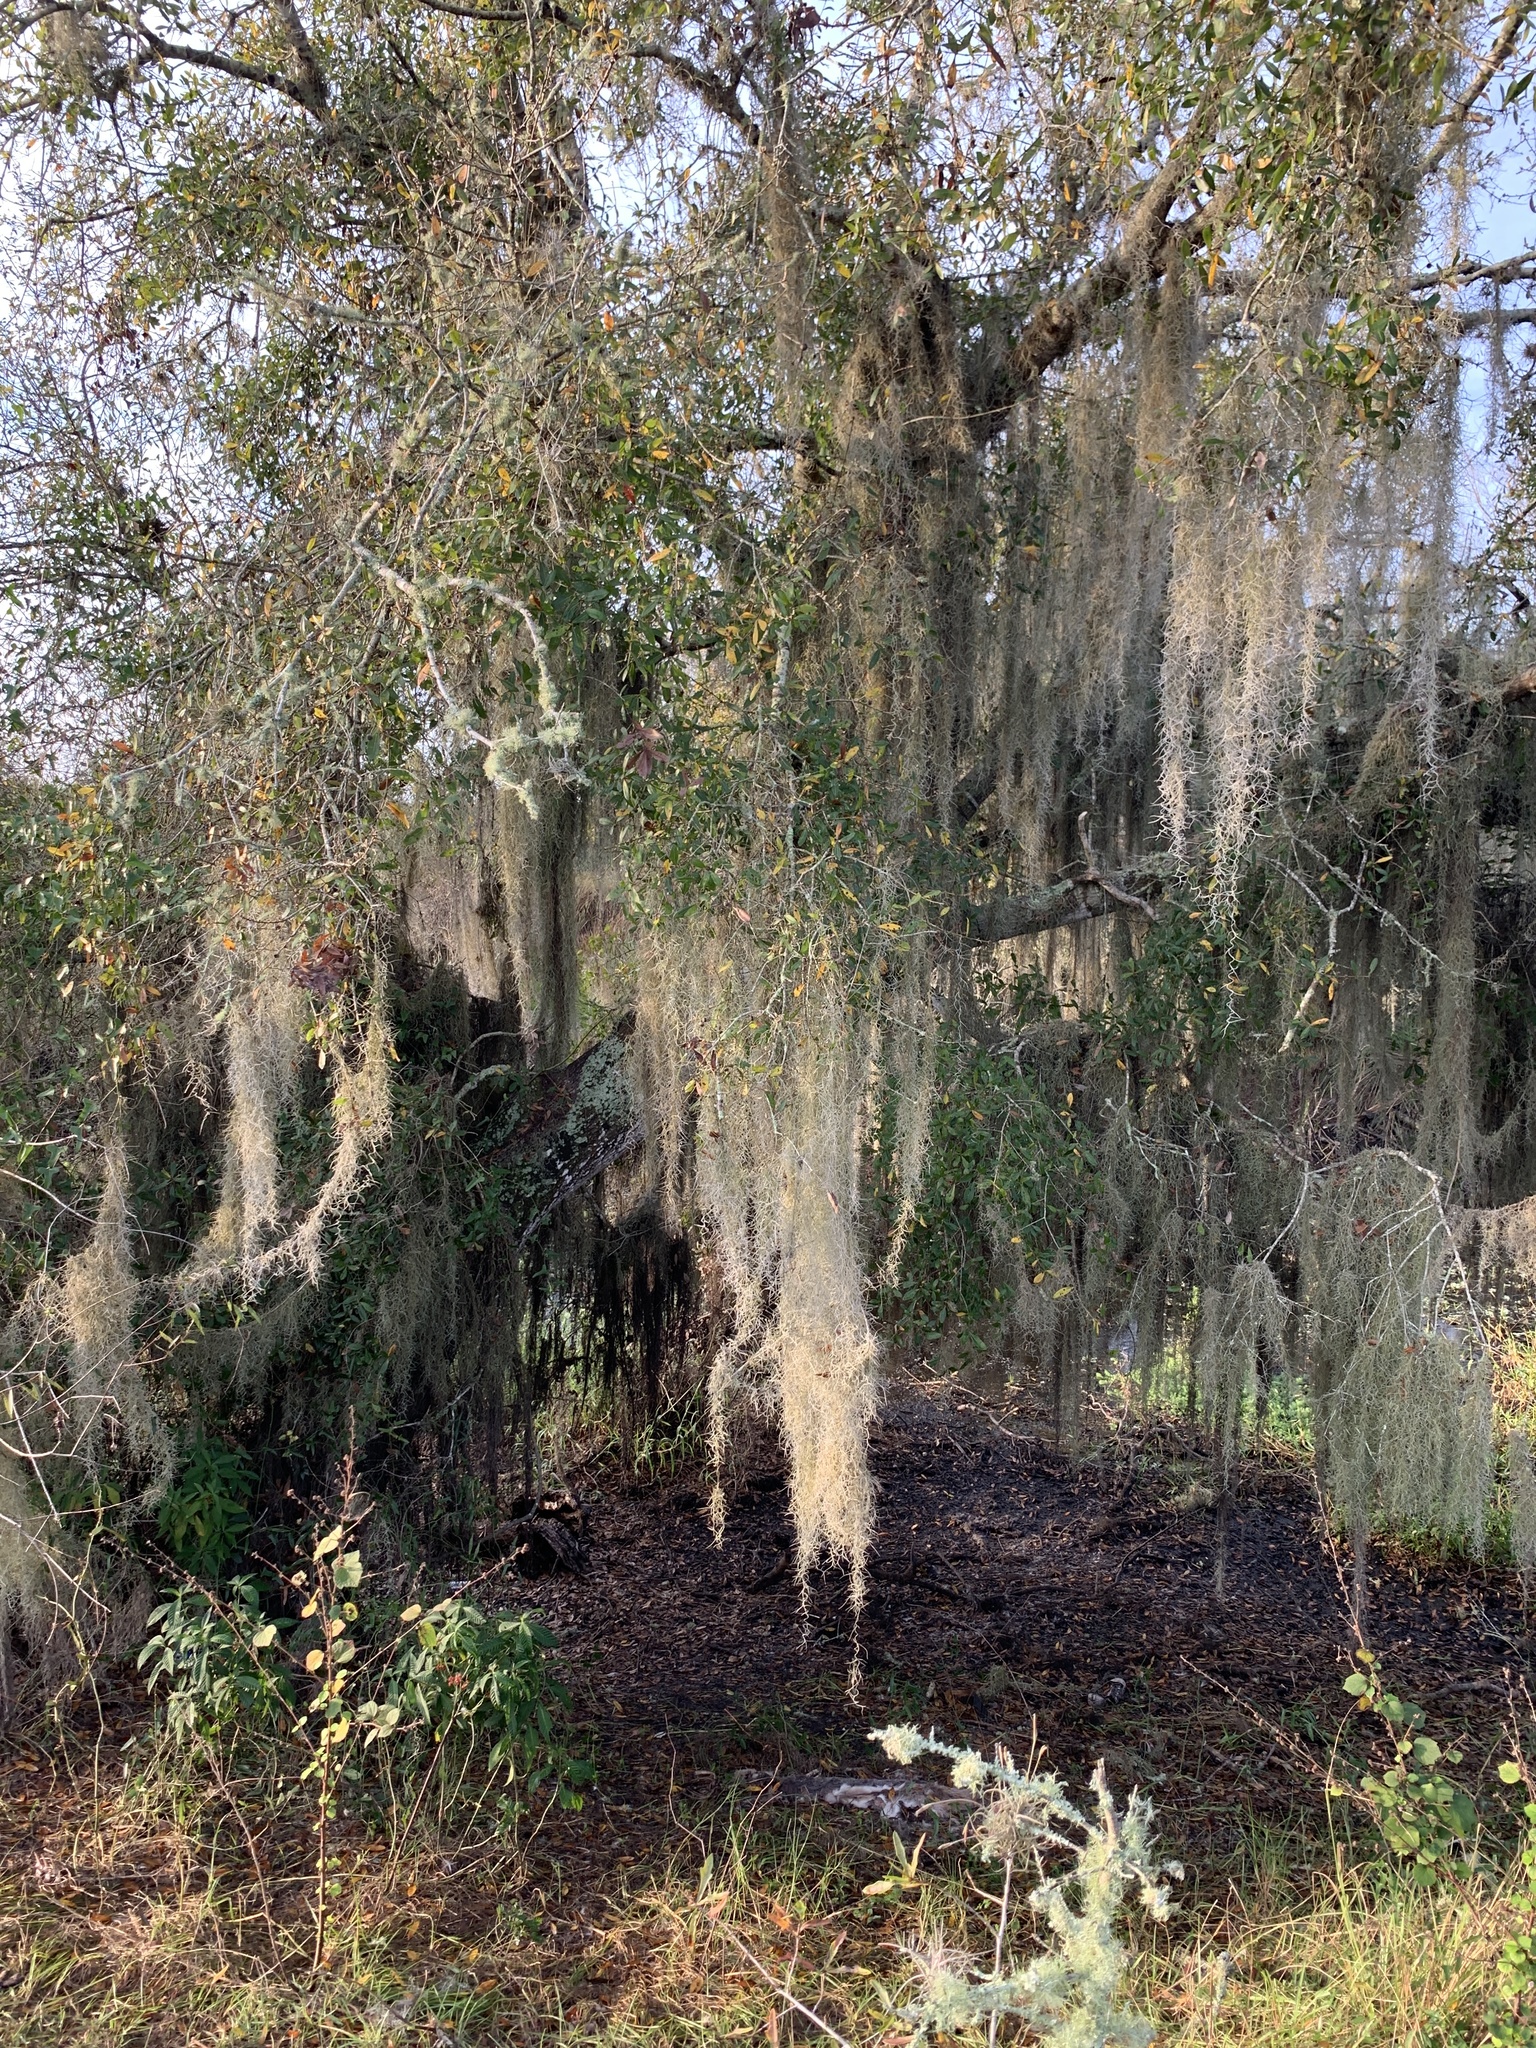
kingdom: Plantae
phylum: Tracheophyta
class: Liliopsida
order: Poales
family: Bromeliaceae
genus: Tillandsia
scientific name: Tillandsia usneoides
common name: Spanish moss
